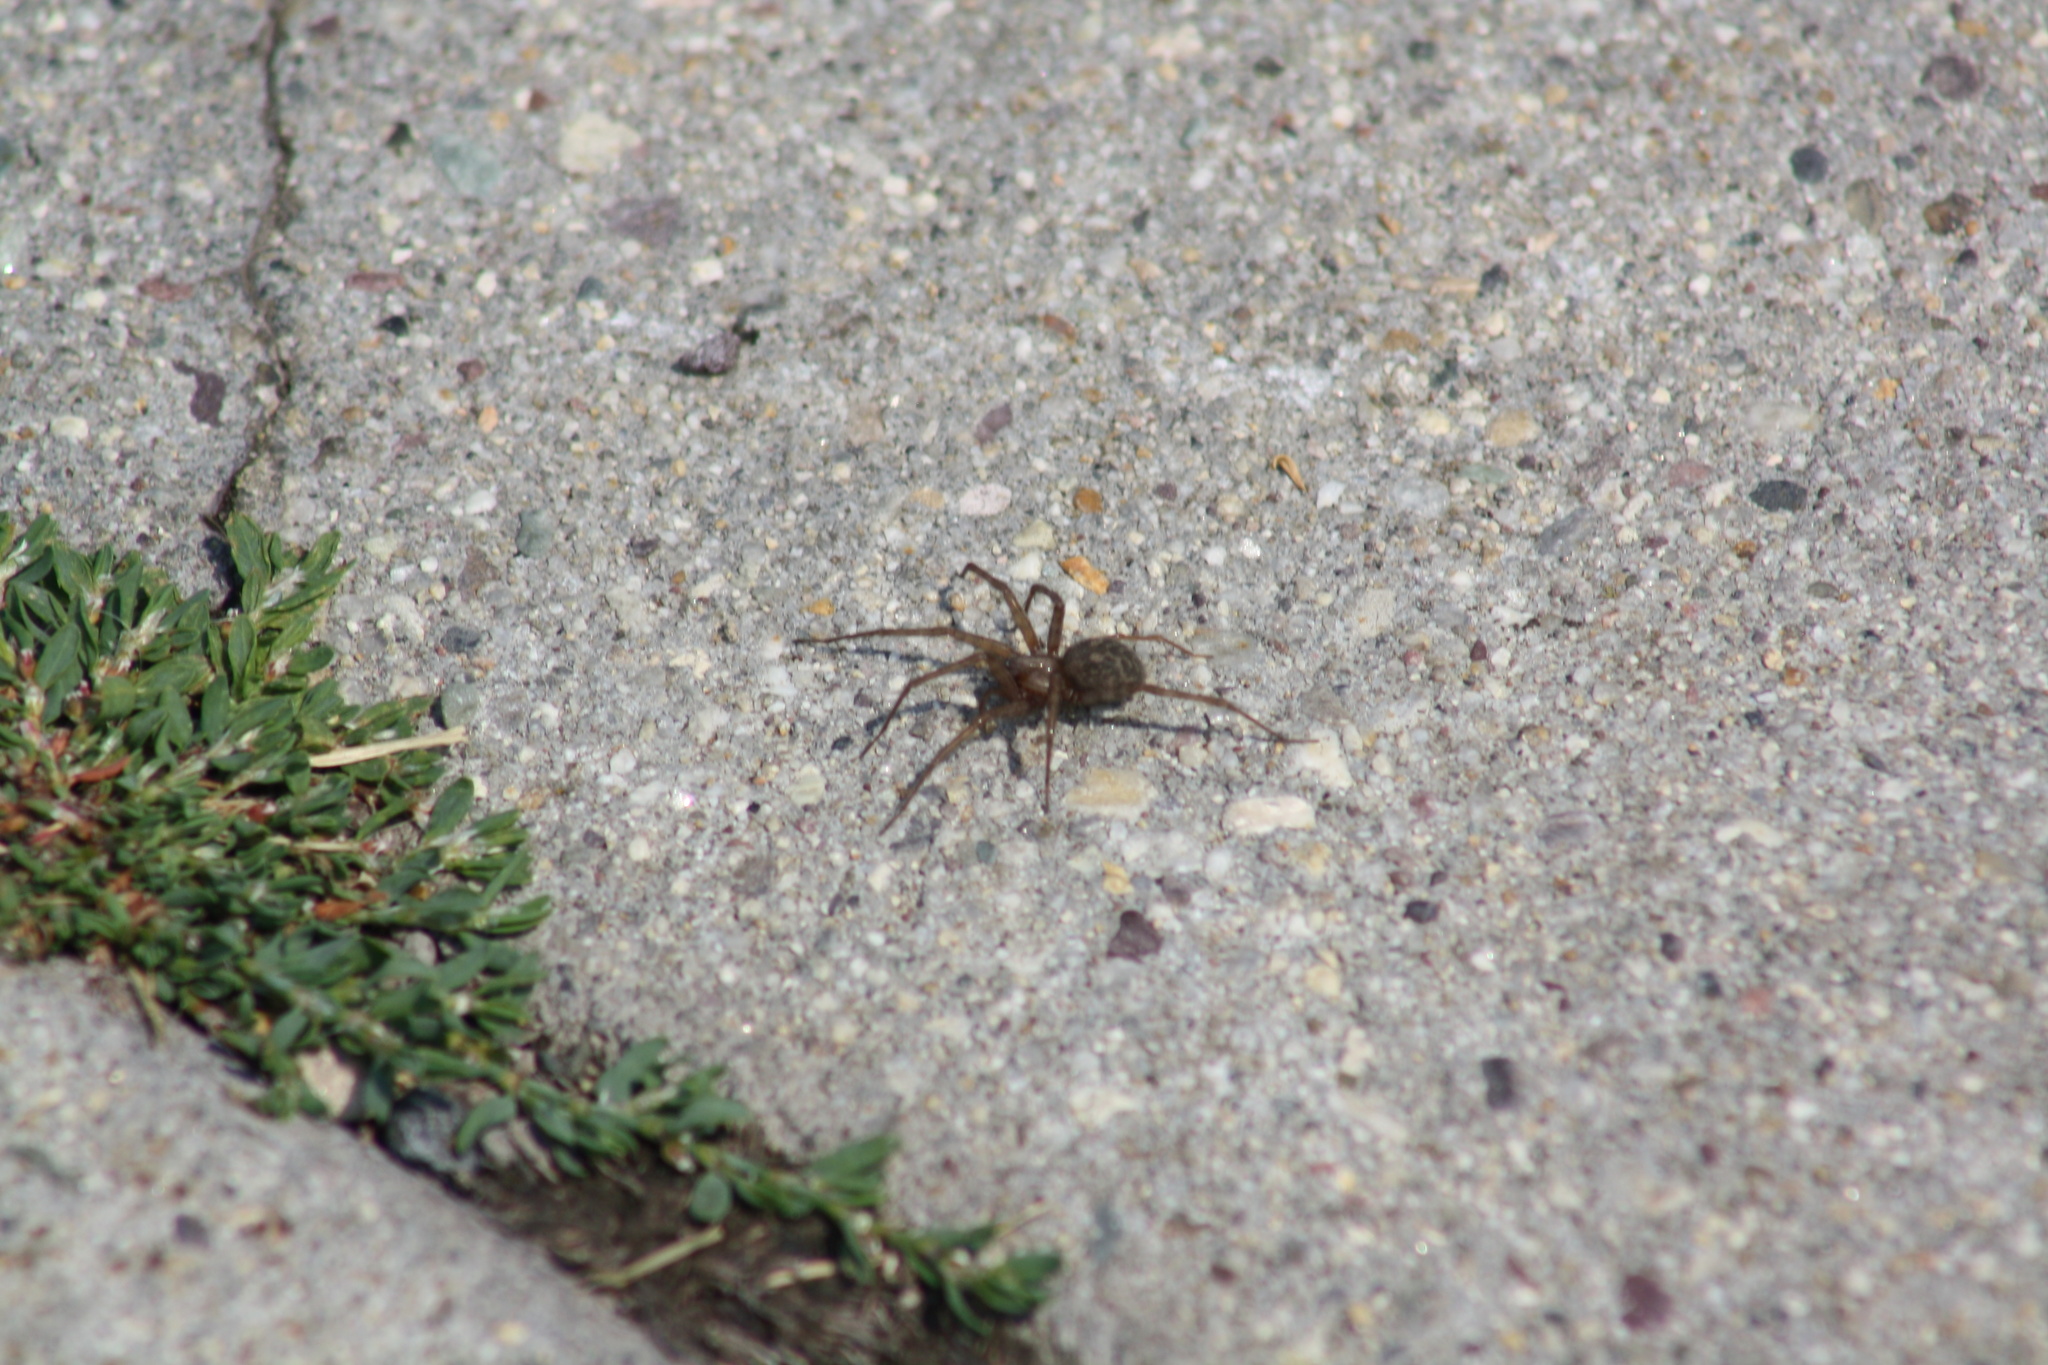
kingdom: Animalia
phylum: Arthropoda
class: Arachnida
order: Araneae
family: Agelenidae
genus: Tegenaria
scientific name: Tegenaria domestica
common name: Barn funnel weaver
